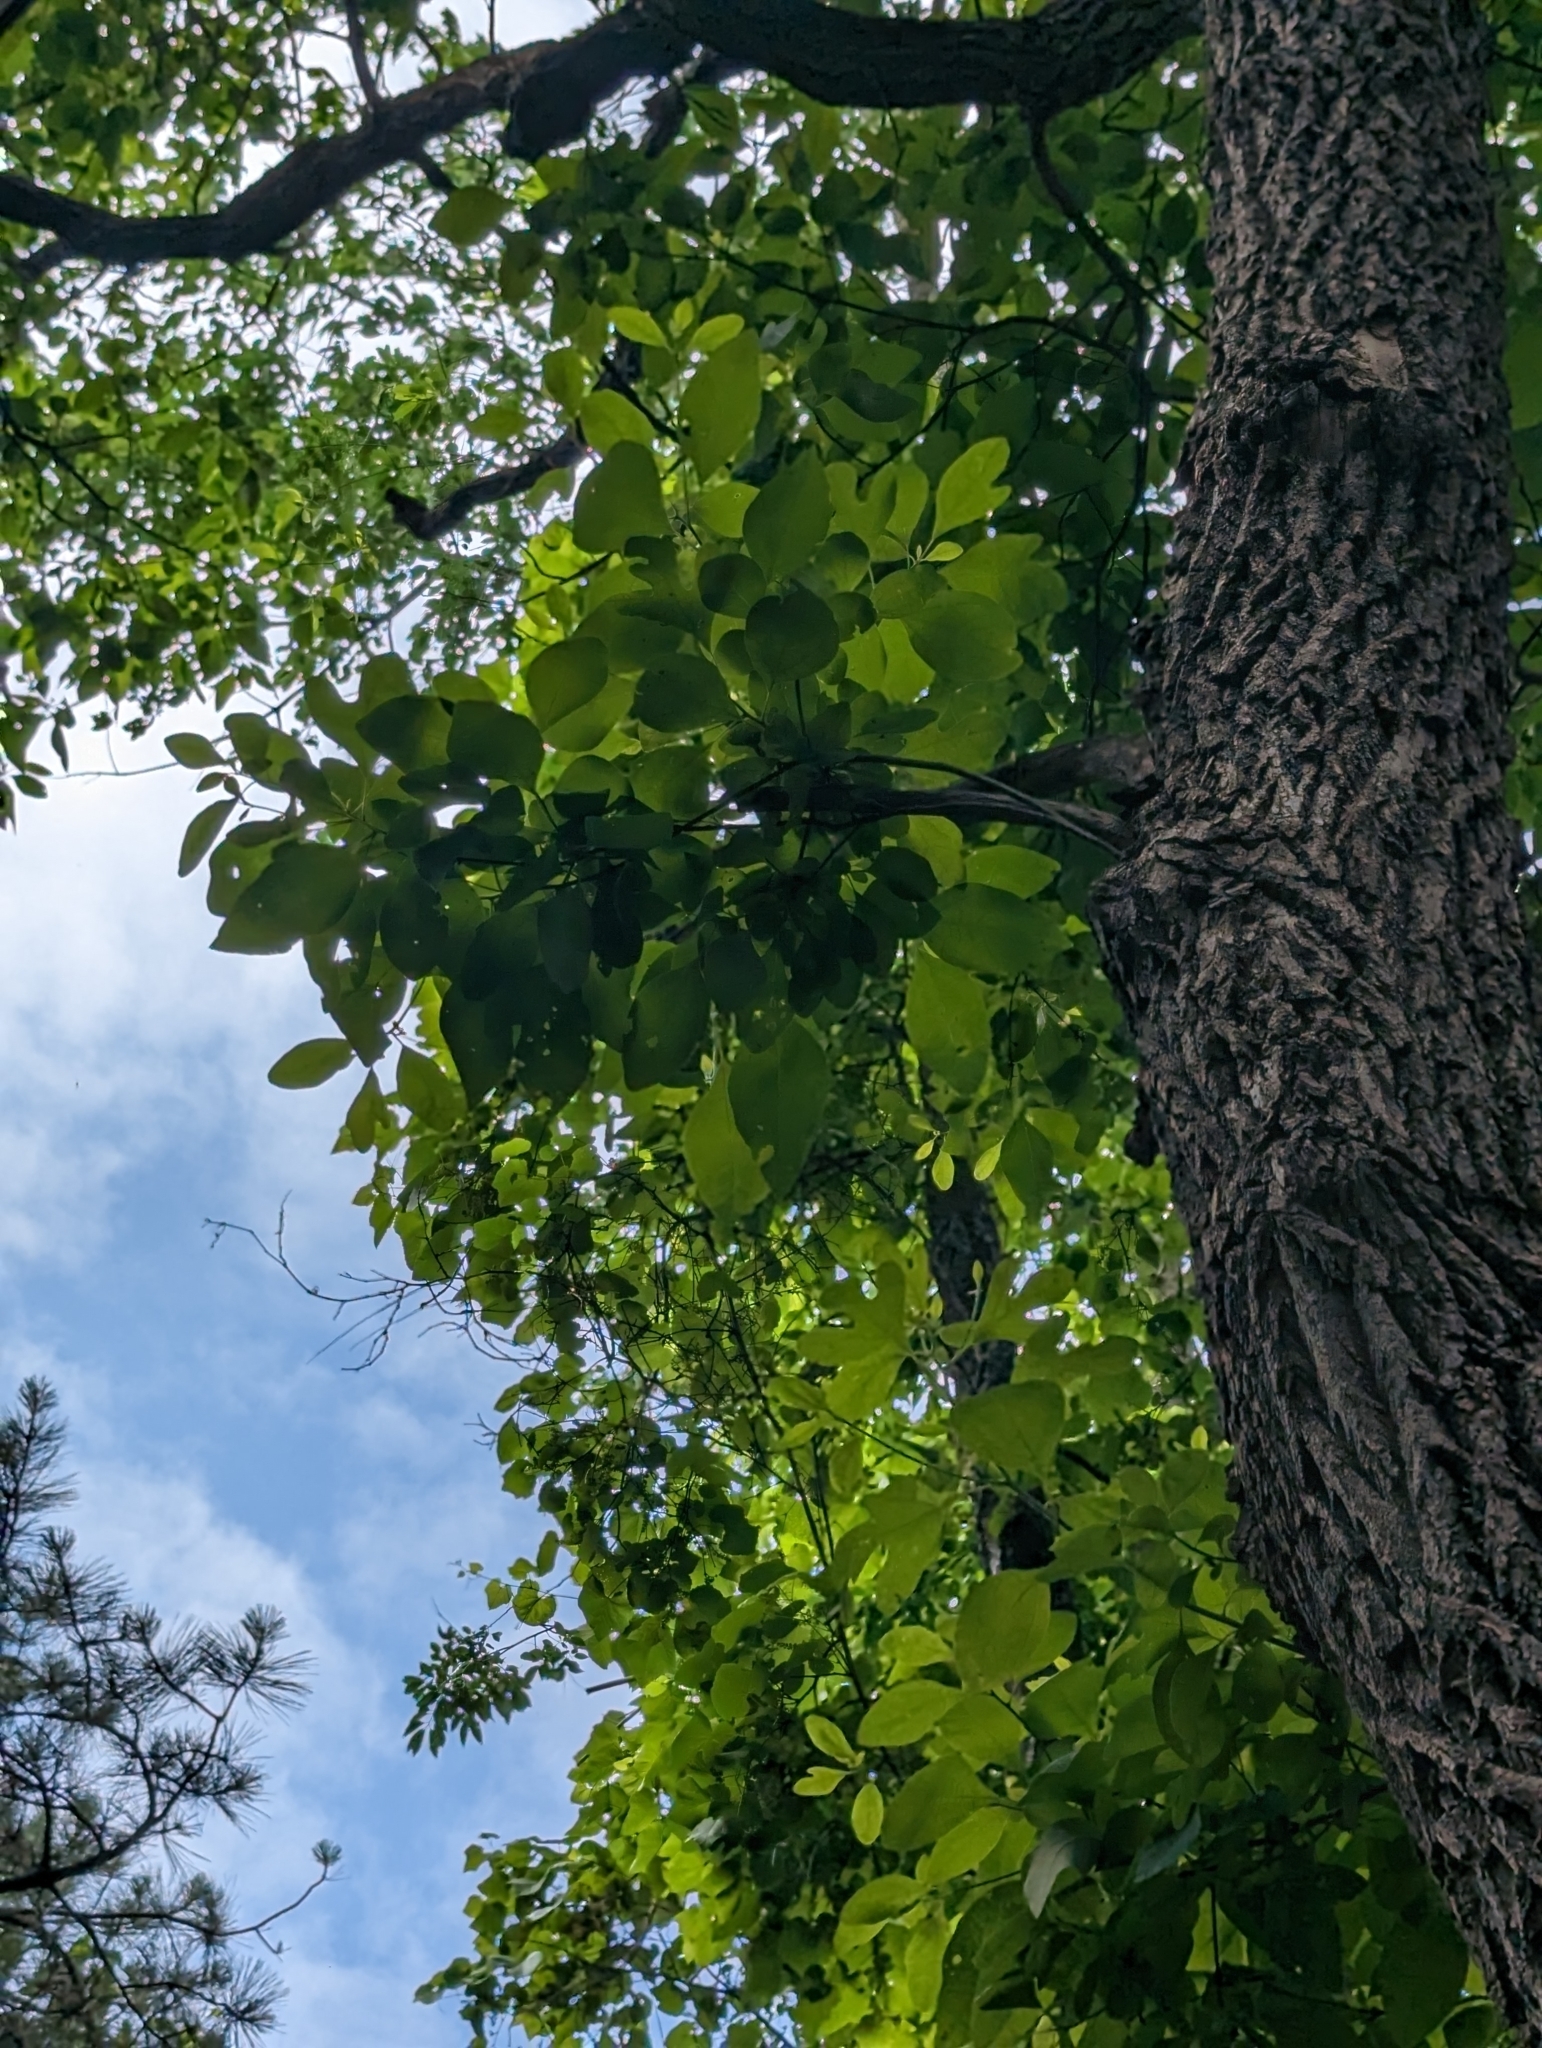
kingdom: Plantae
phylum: Tracheophyta
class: Magnoliopsida
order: Laurales
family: Lauraceae
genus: Sassafras
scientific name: Sassafras albidum
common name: Sassafras
